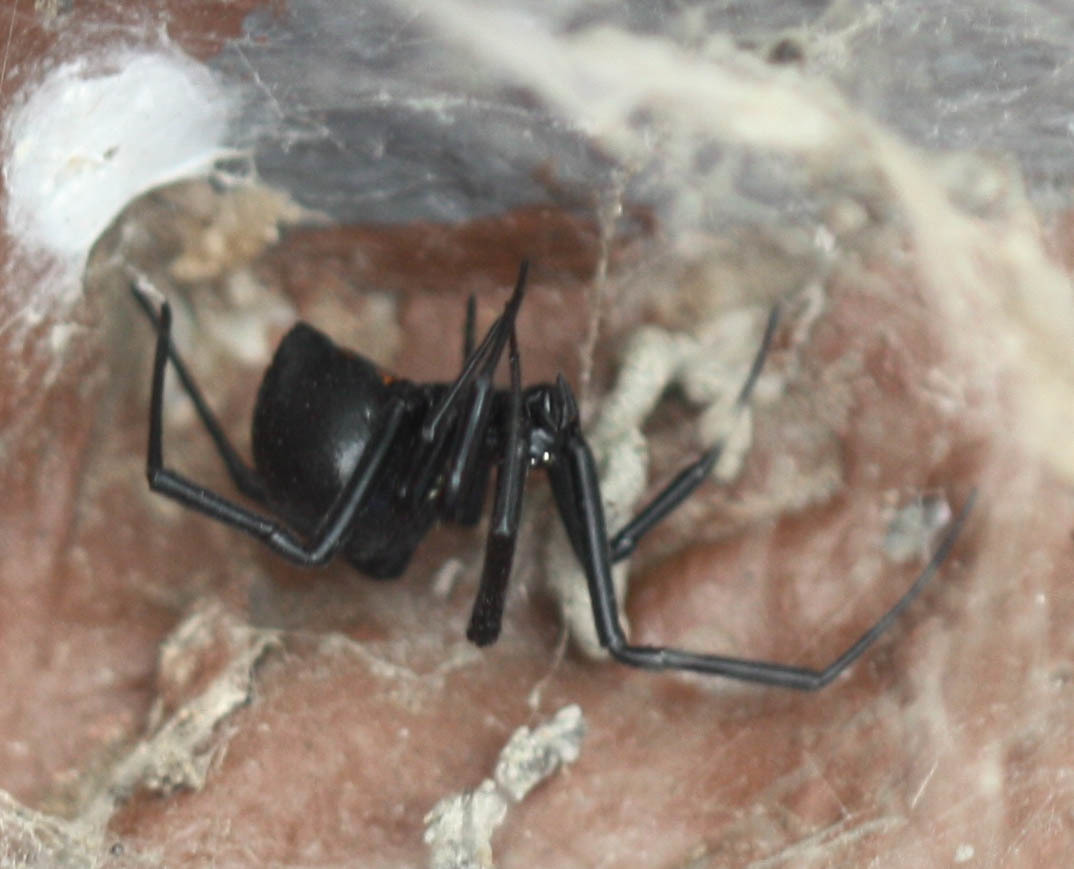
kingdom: Animalia
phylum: Arthropoda
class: Arachnida
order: Araneae
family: Theridiidae
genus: Latrodectus
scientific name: Latrodectus hesperus
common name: Western black widow
